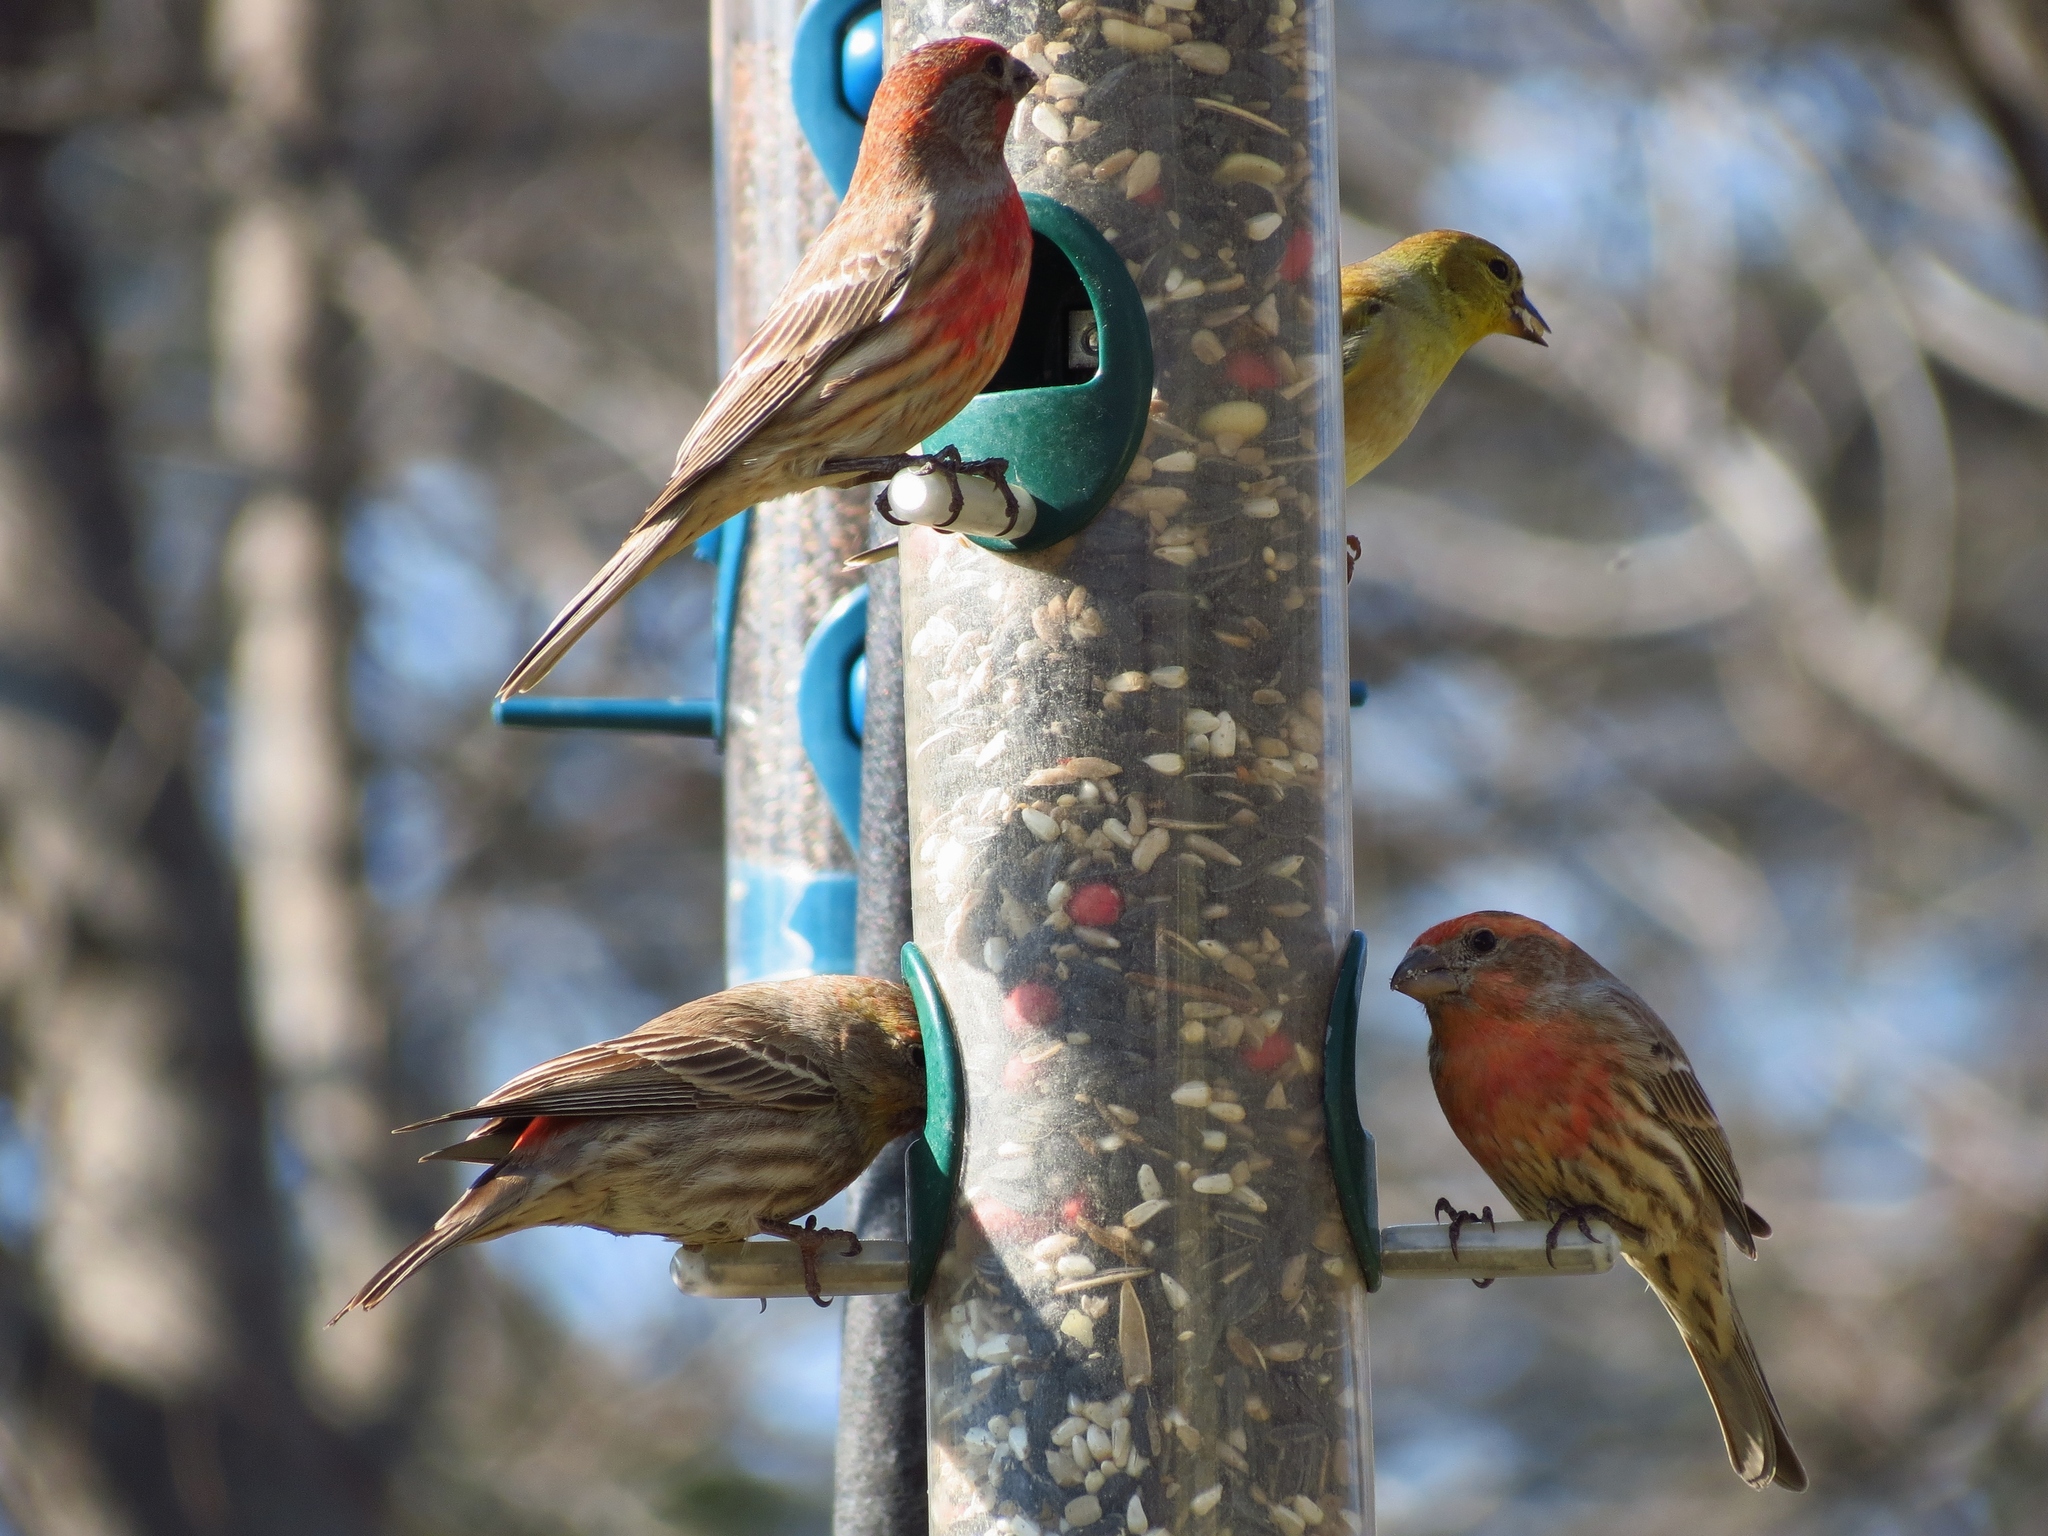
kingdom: Animalia
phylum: Chordata
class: Aves
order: Passeriformes
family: Fringillidae
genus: Haemorhous
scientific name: Haemorhous mexicanus
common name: House finch
